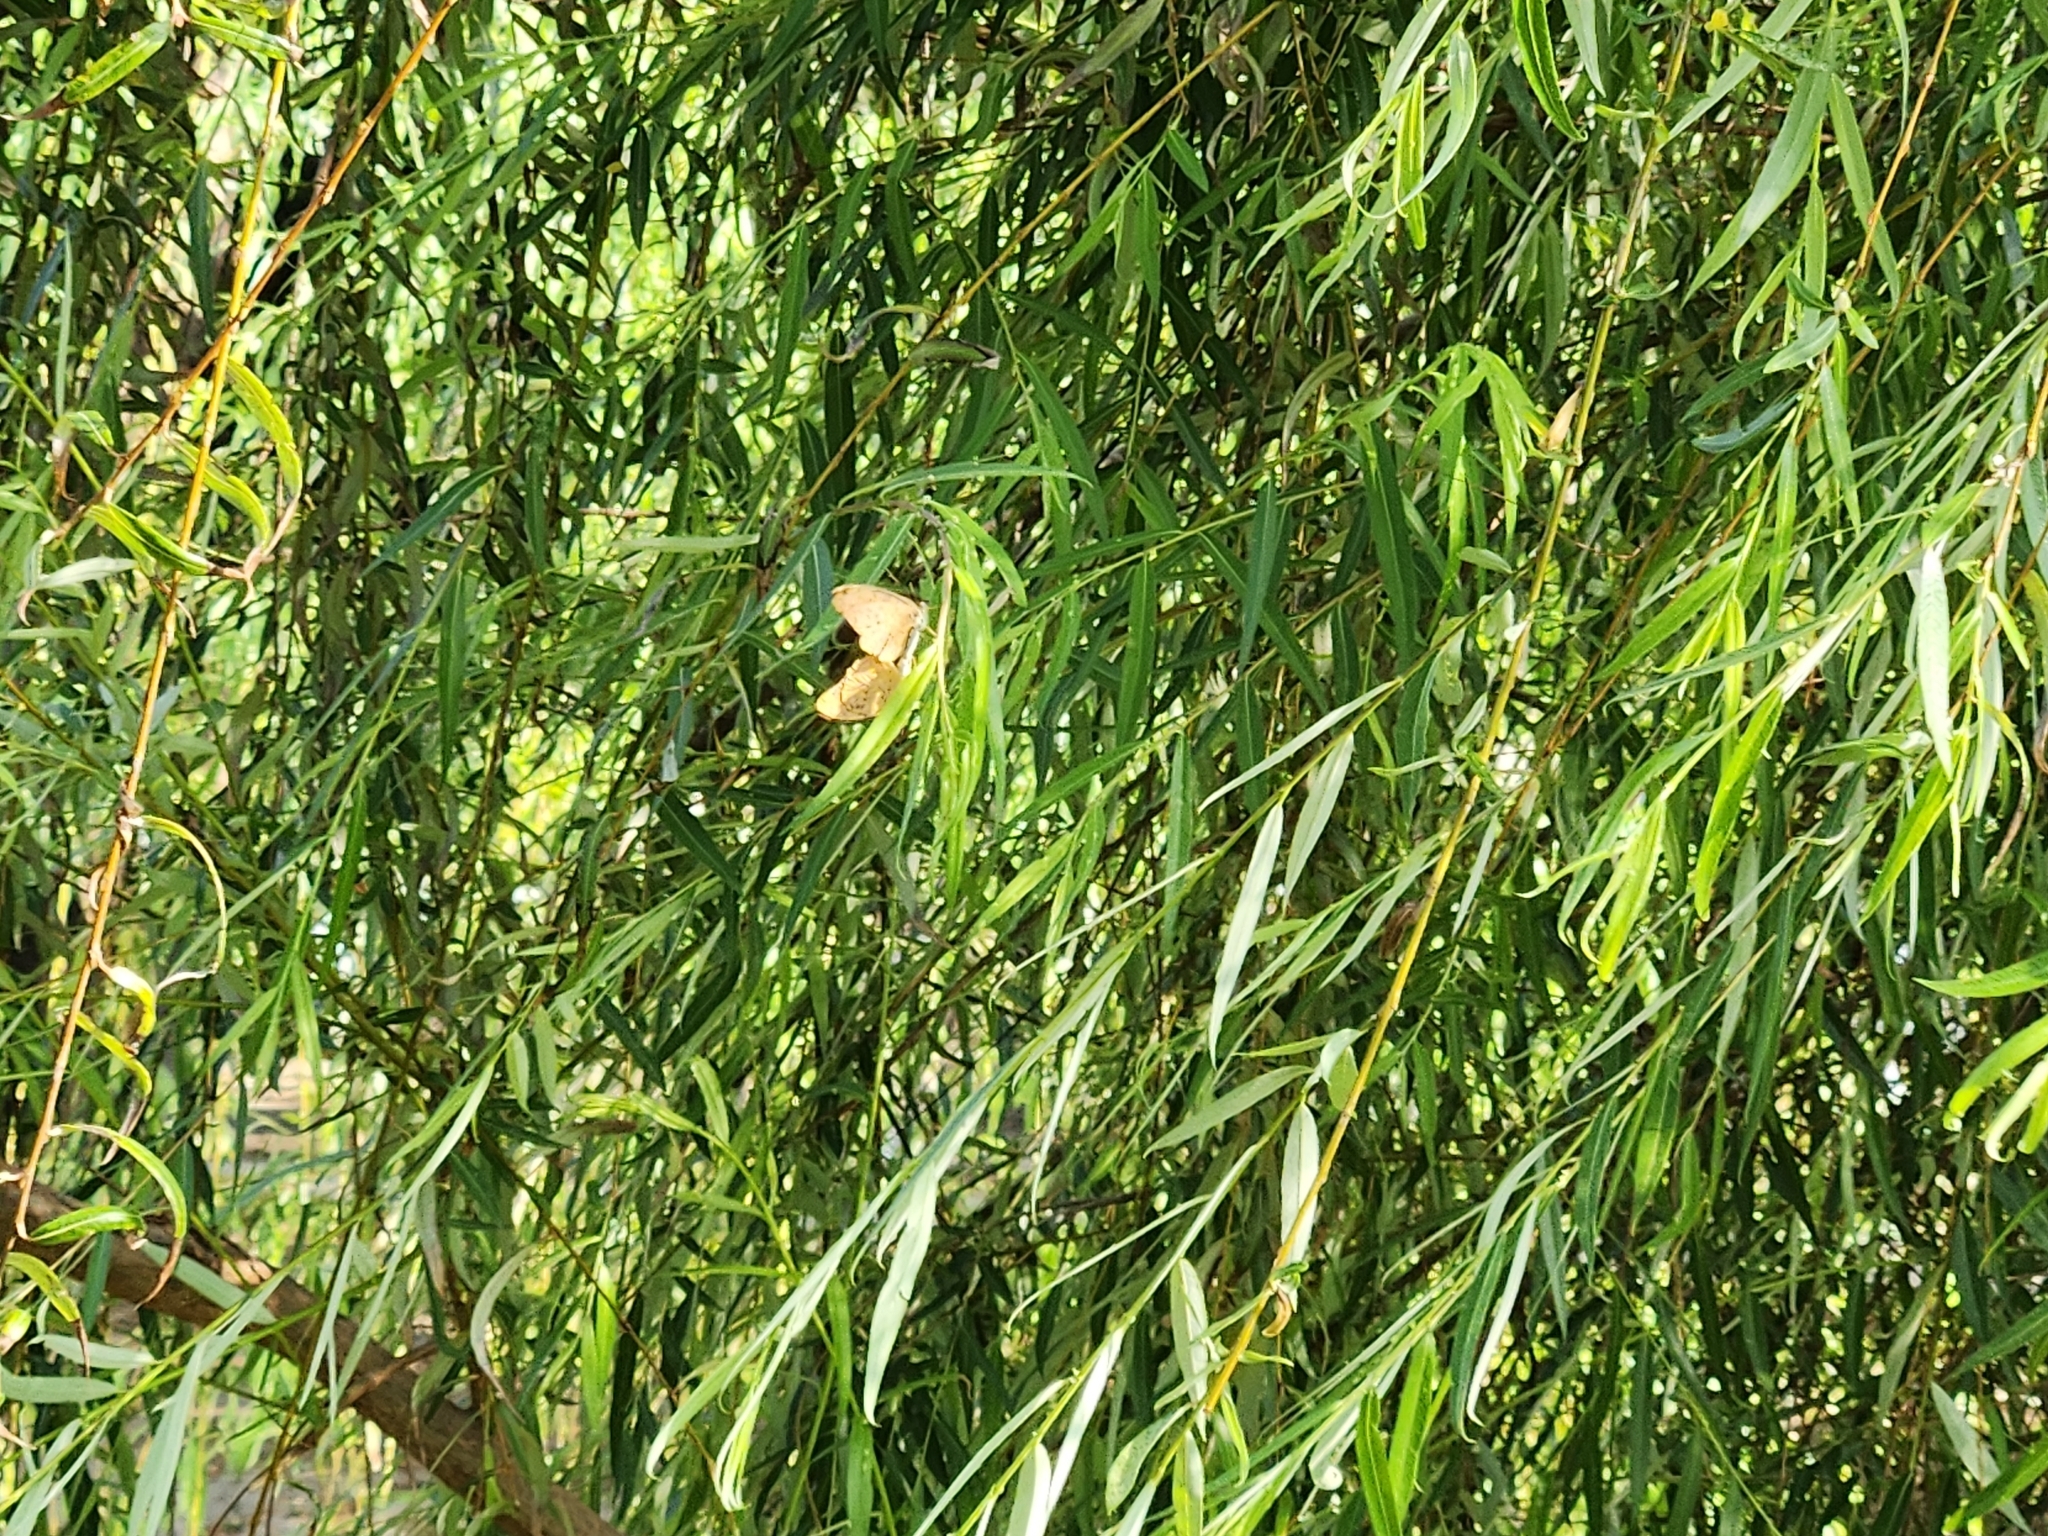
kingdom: Animalia
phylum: Arthropoda
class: Insecta
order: Lepidoptera
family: Nymphalidae
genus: Phalanta
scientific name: Phalanta phalantha
